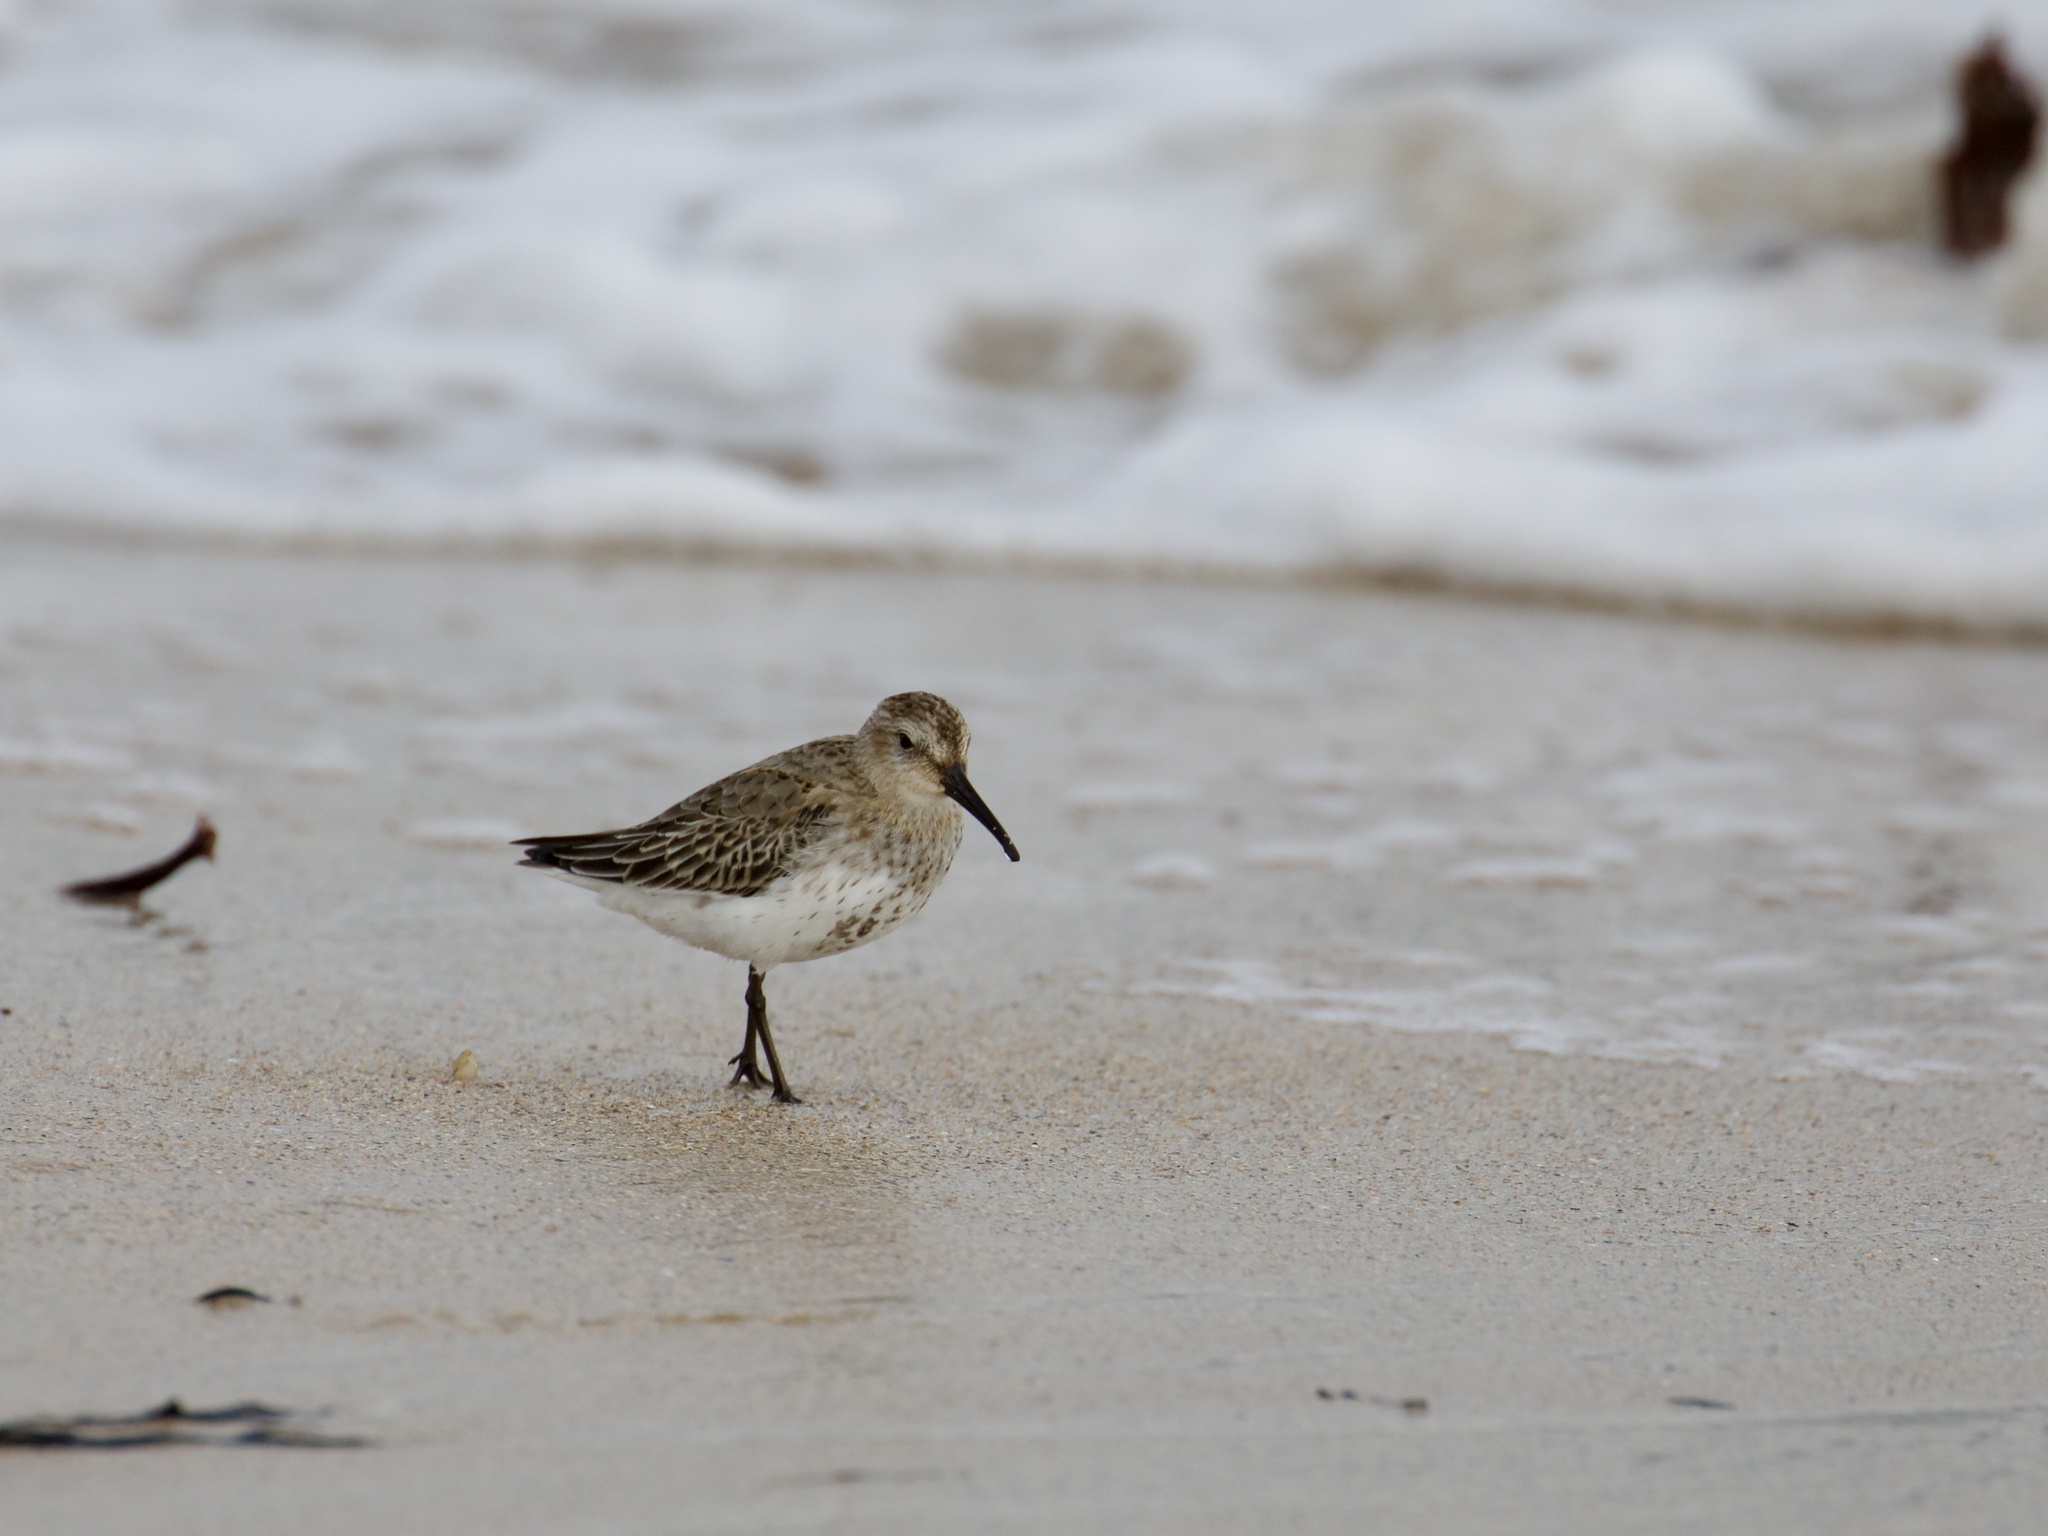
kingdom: Animalia
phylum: Chordata
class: Aves
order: Charadriiformes
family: Scolopacidae
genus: Calidris
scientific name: Calidris alpina
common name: Dunlin
